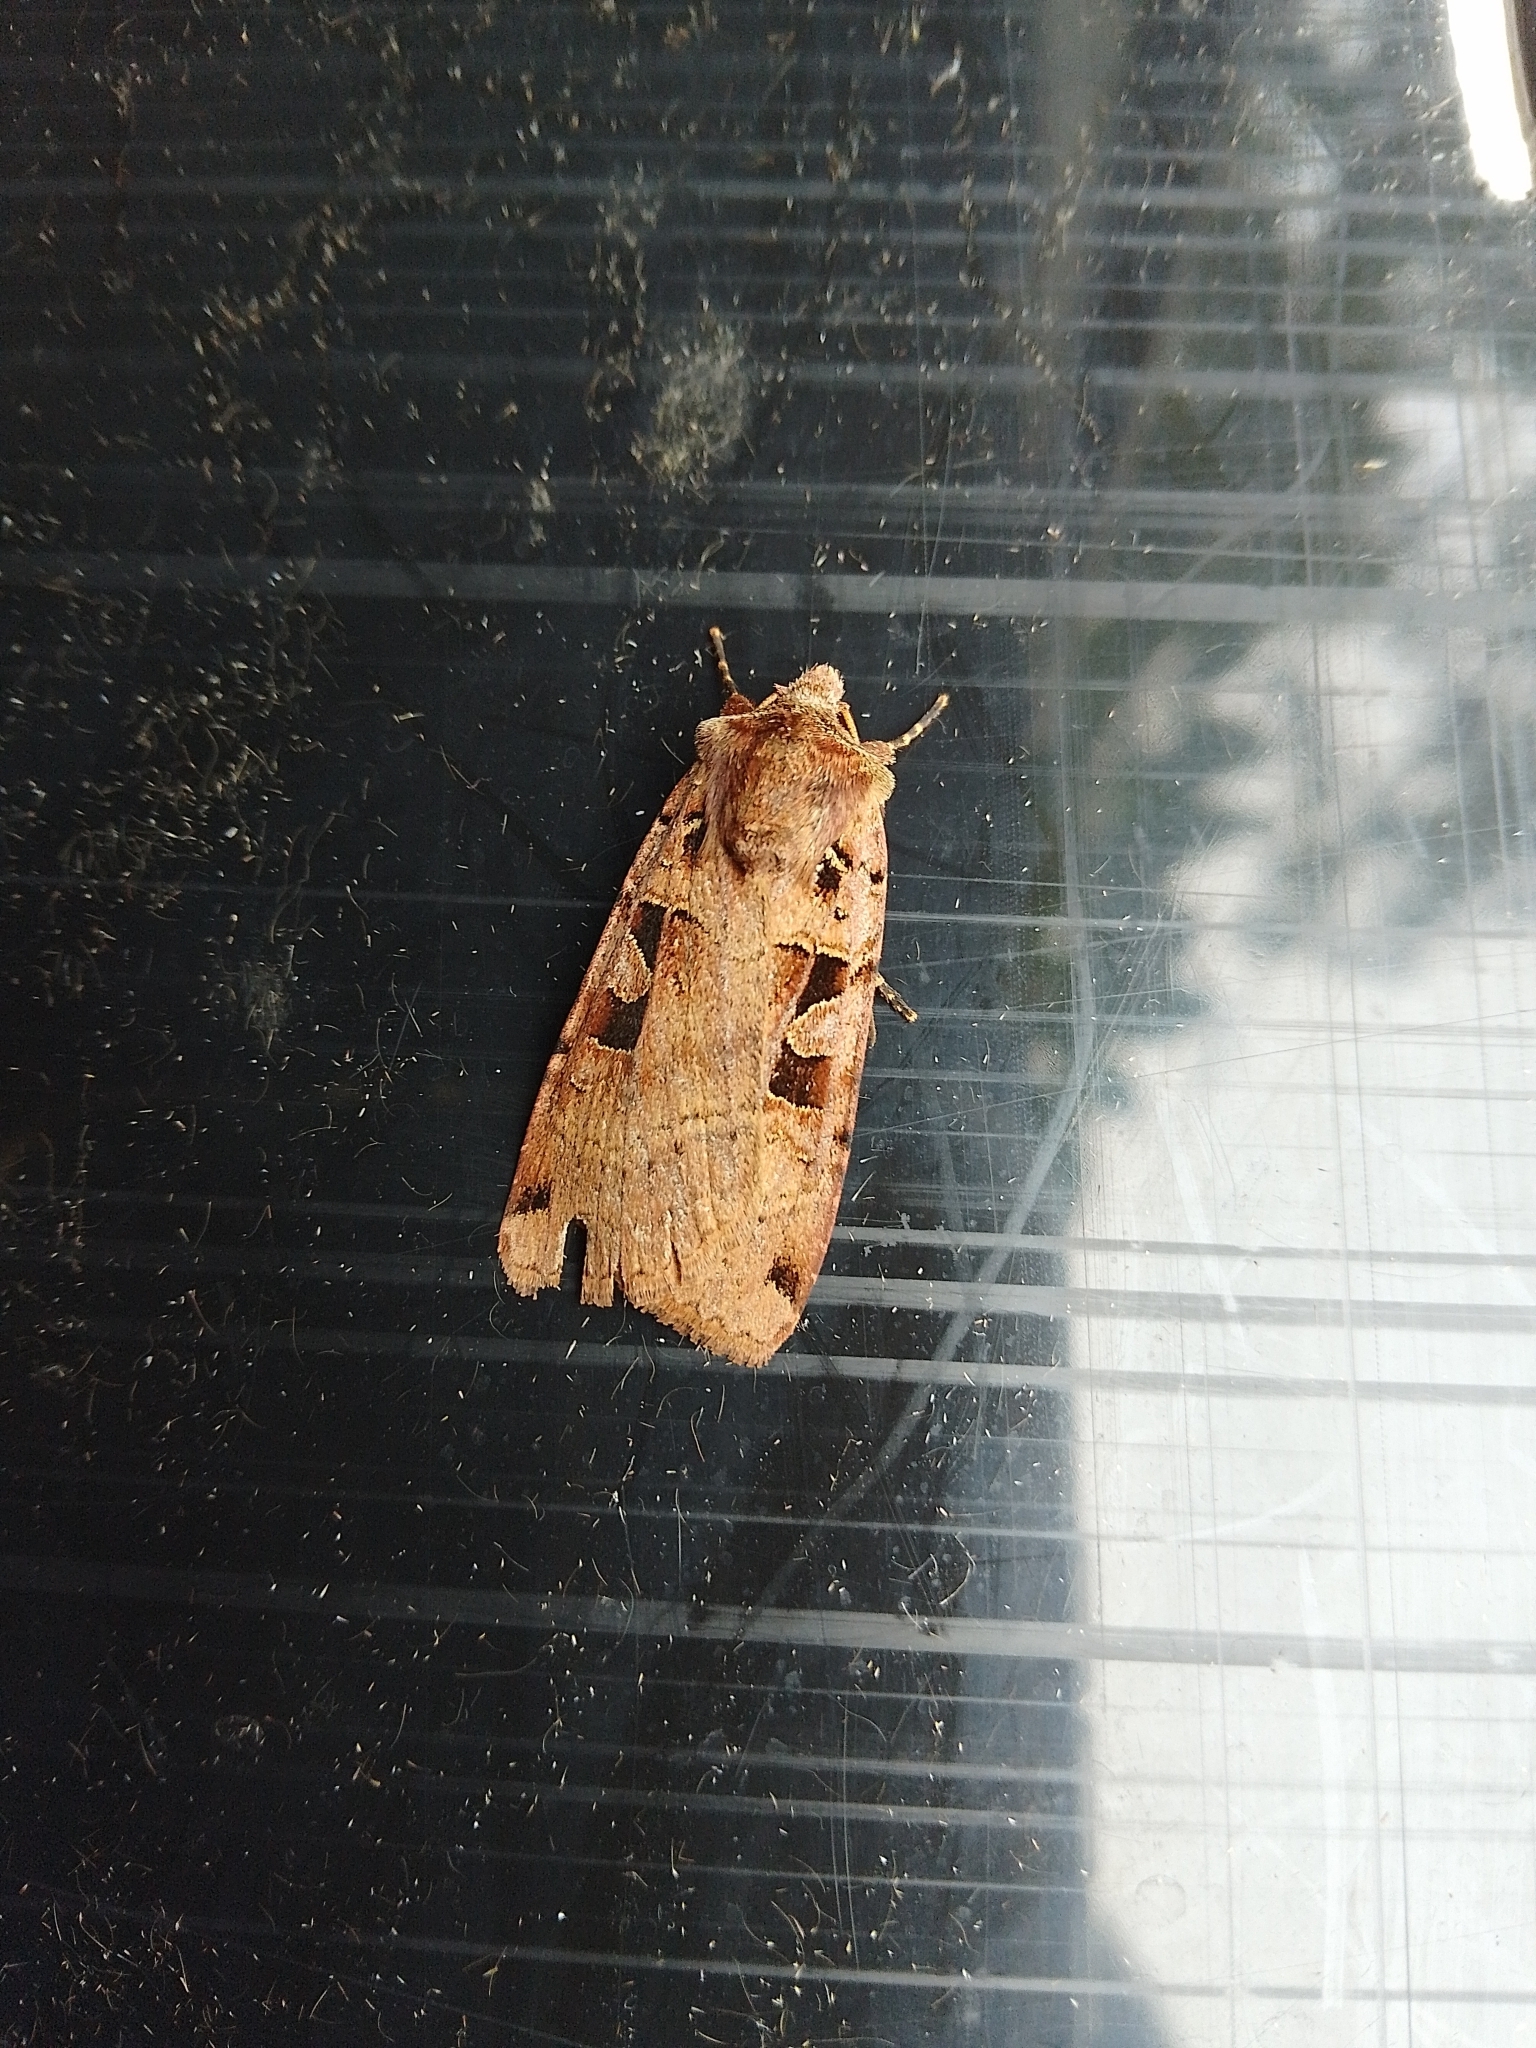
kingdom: Animalia
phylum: Arthropoda
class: Insecta
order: Lepidoptera
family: Noctuidae
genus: Xestia
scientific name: Xestia triangulum
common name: Double square-spot
